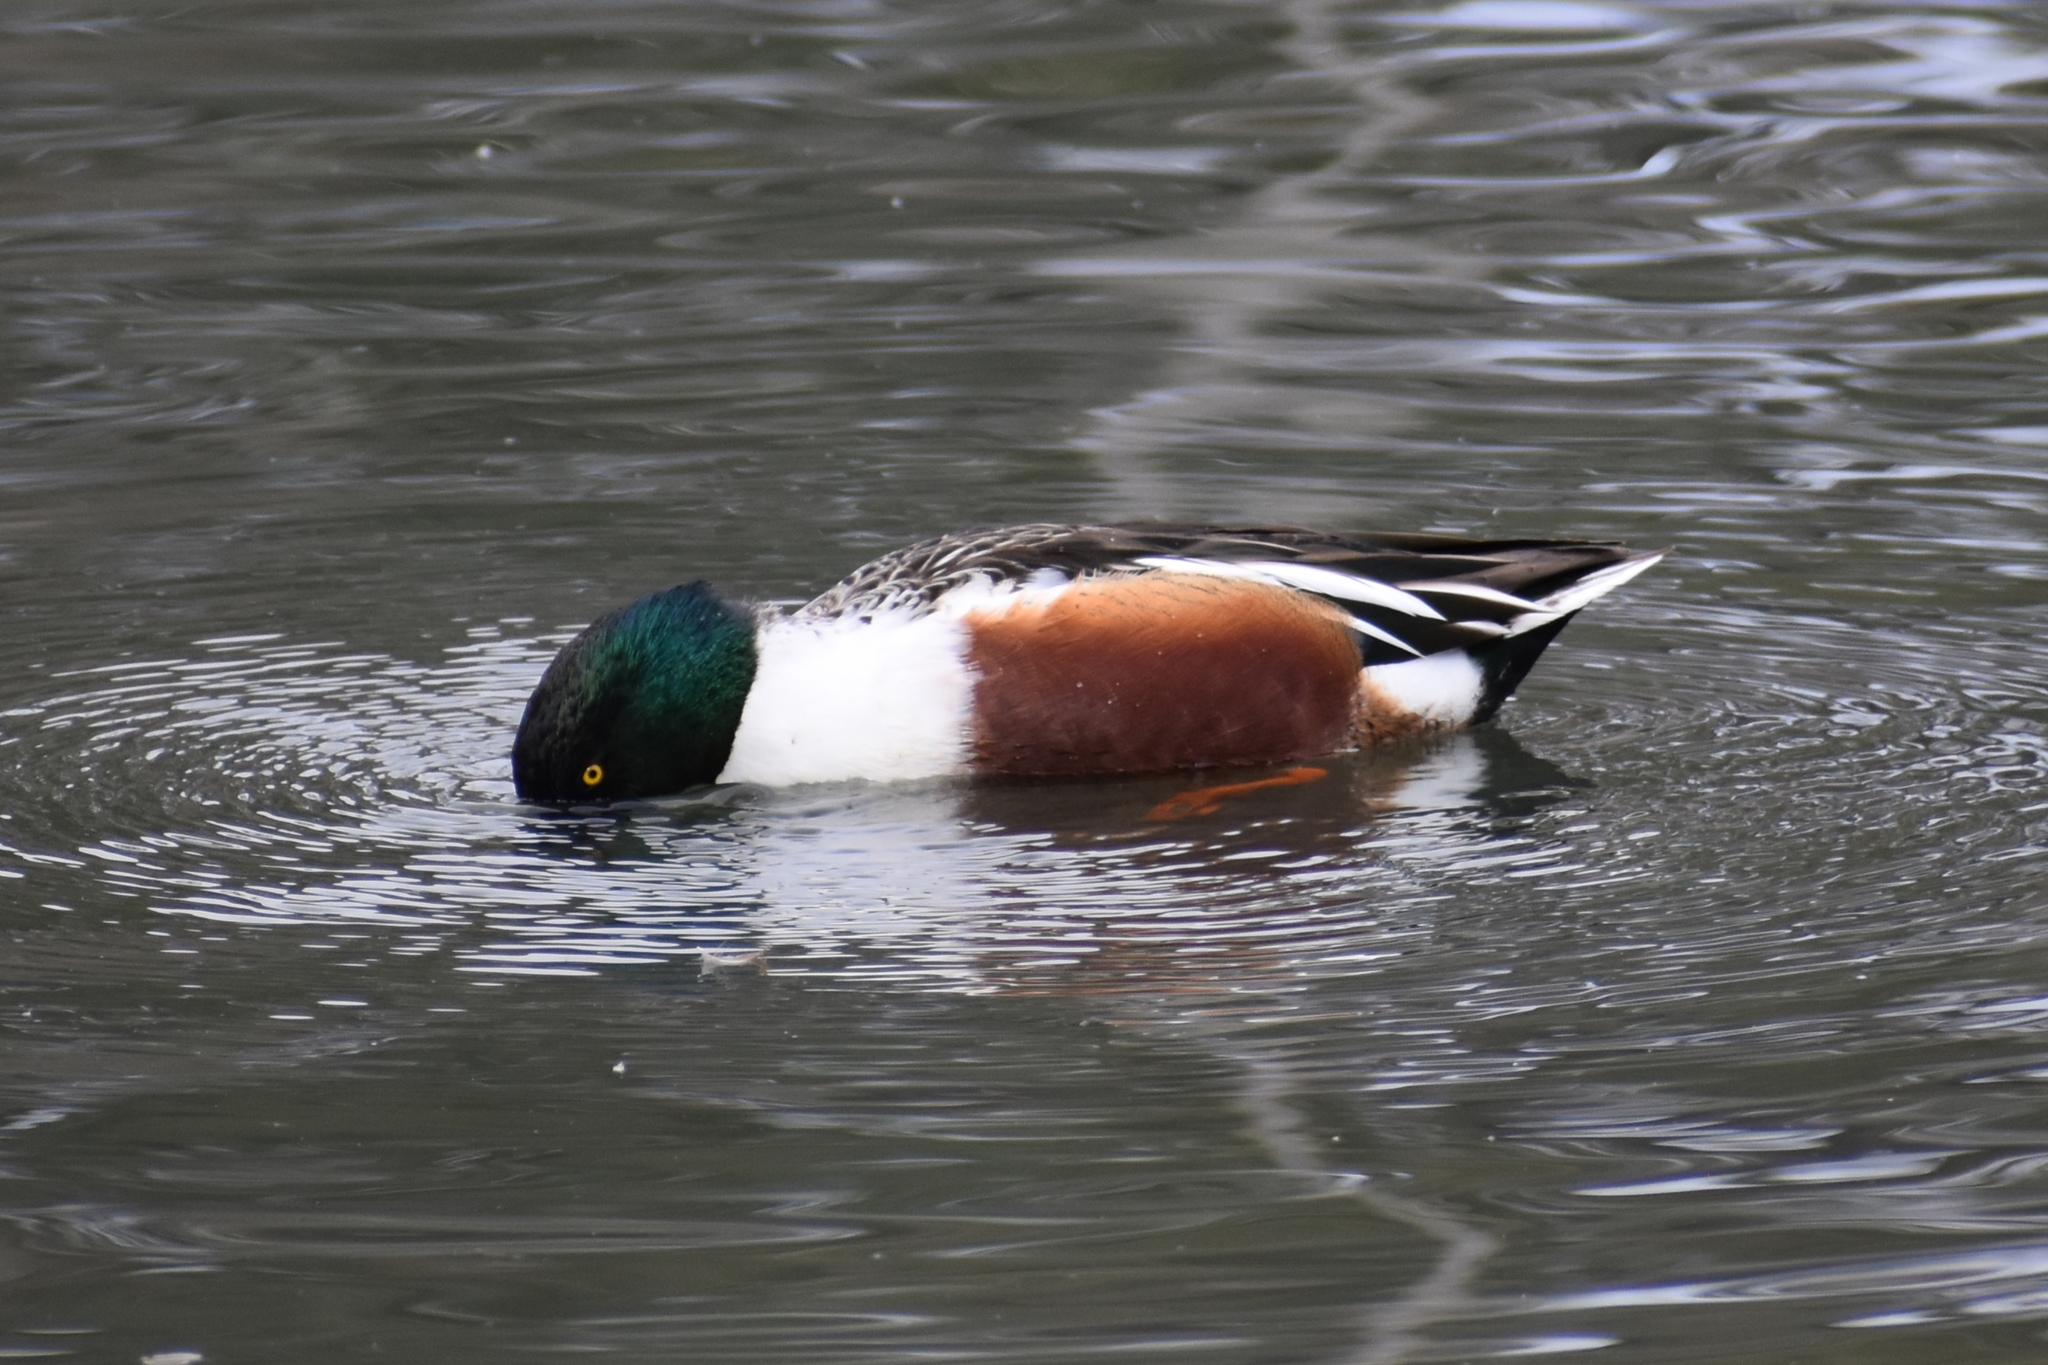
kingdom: Animalia
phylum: Chordata
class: Aves
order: Anseriformes
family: Anatidae
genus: Spatula
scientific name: Spatula clypeata
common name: Northern shoveler
